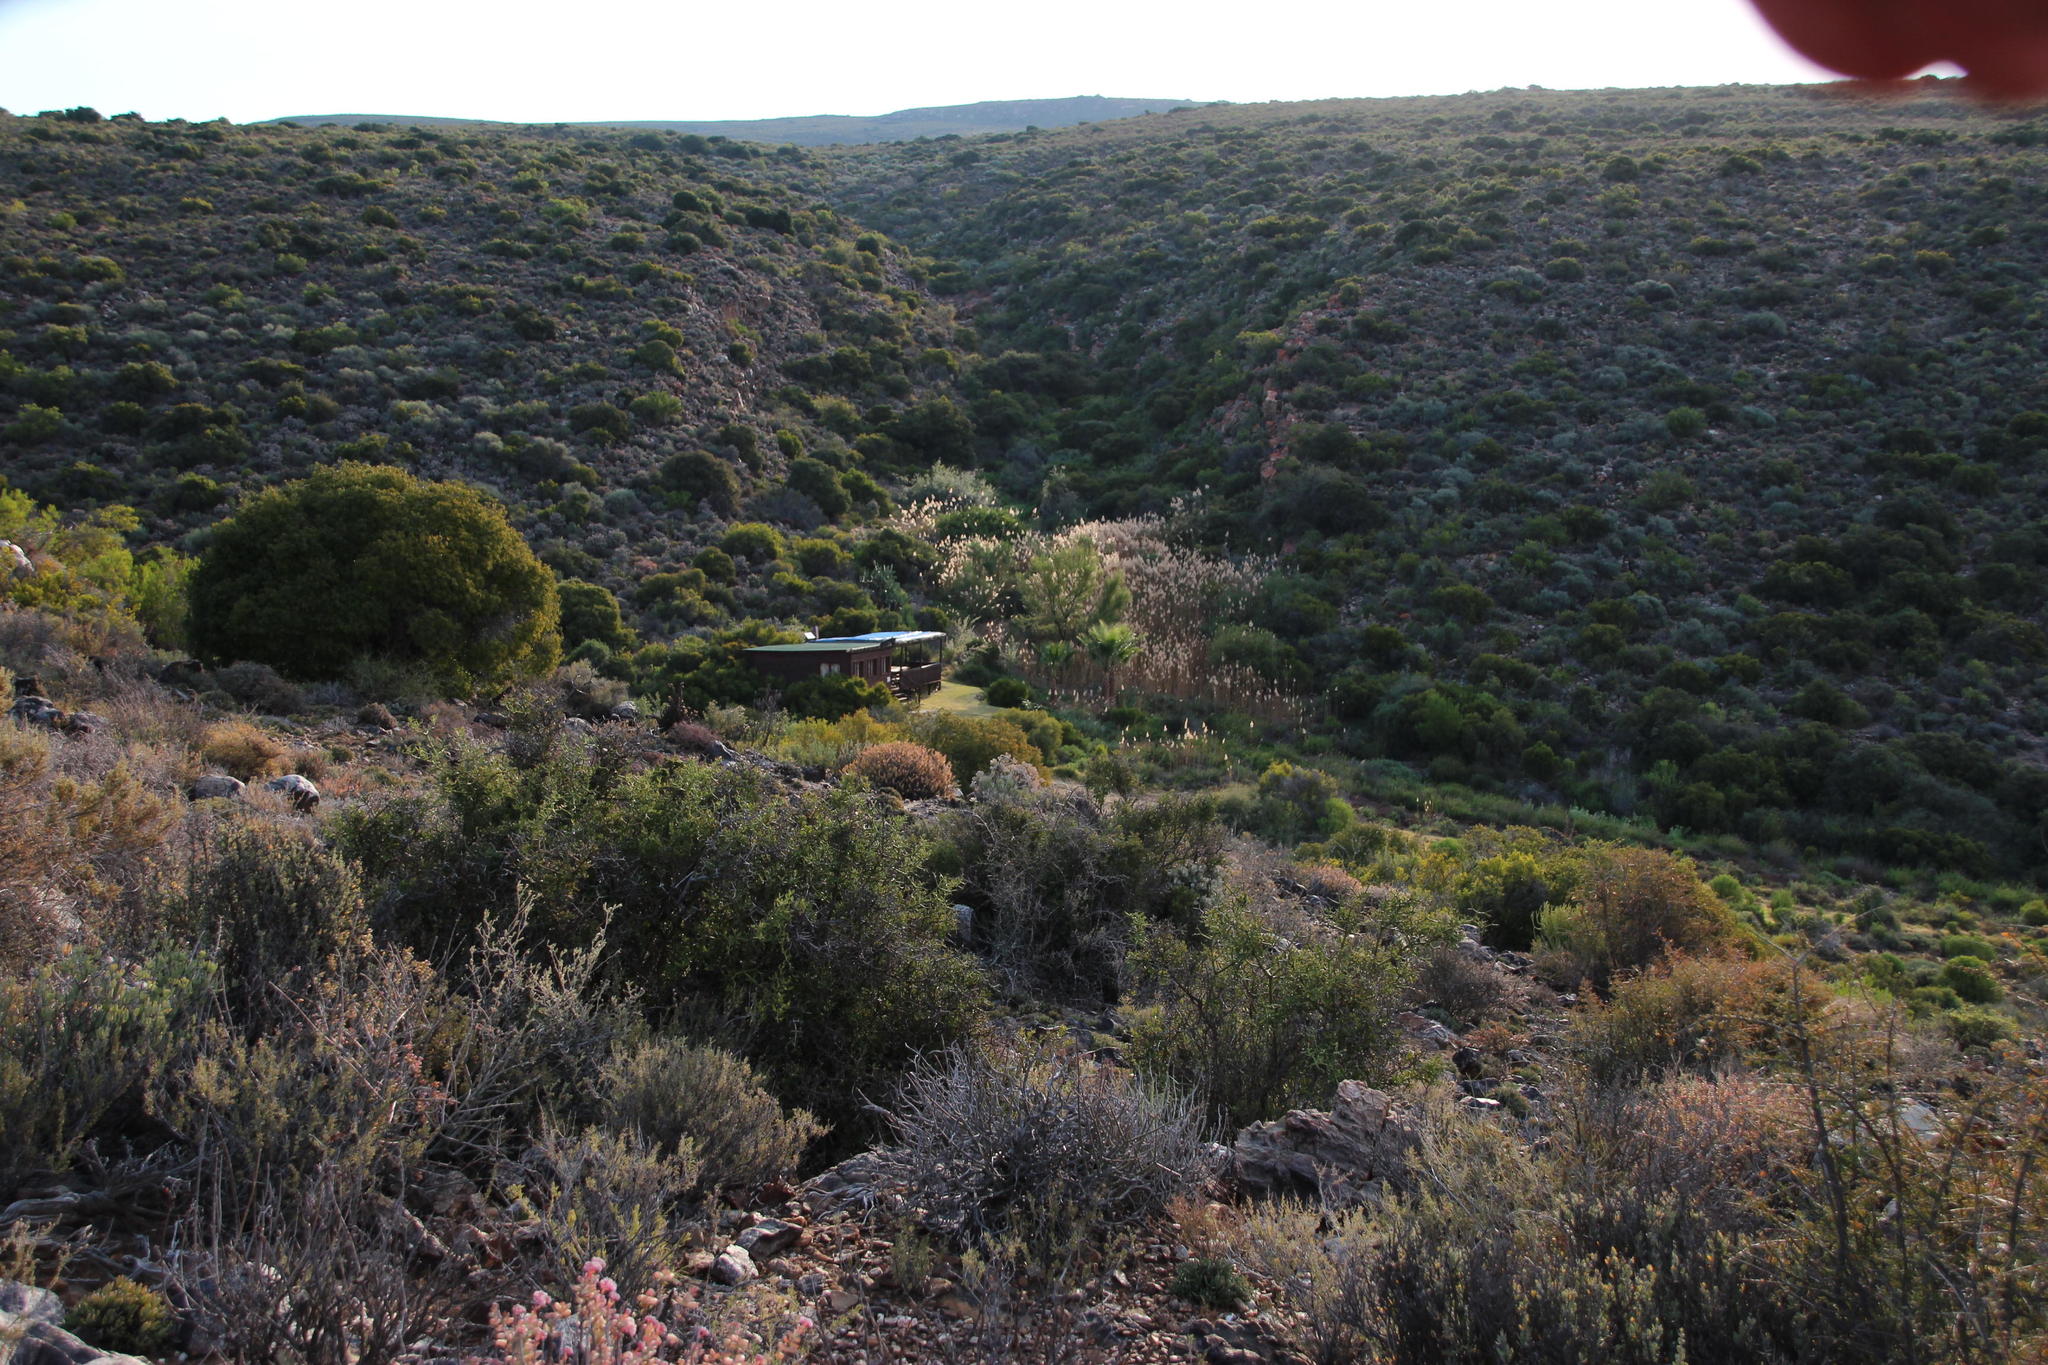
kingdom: Plantae
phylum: Tracheophyta
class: Liliopsida
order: Poales
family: Poaceae
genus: Phragmites
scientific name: Phragmites australis
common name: Common reed
